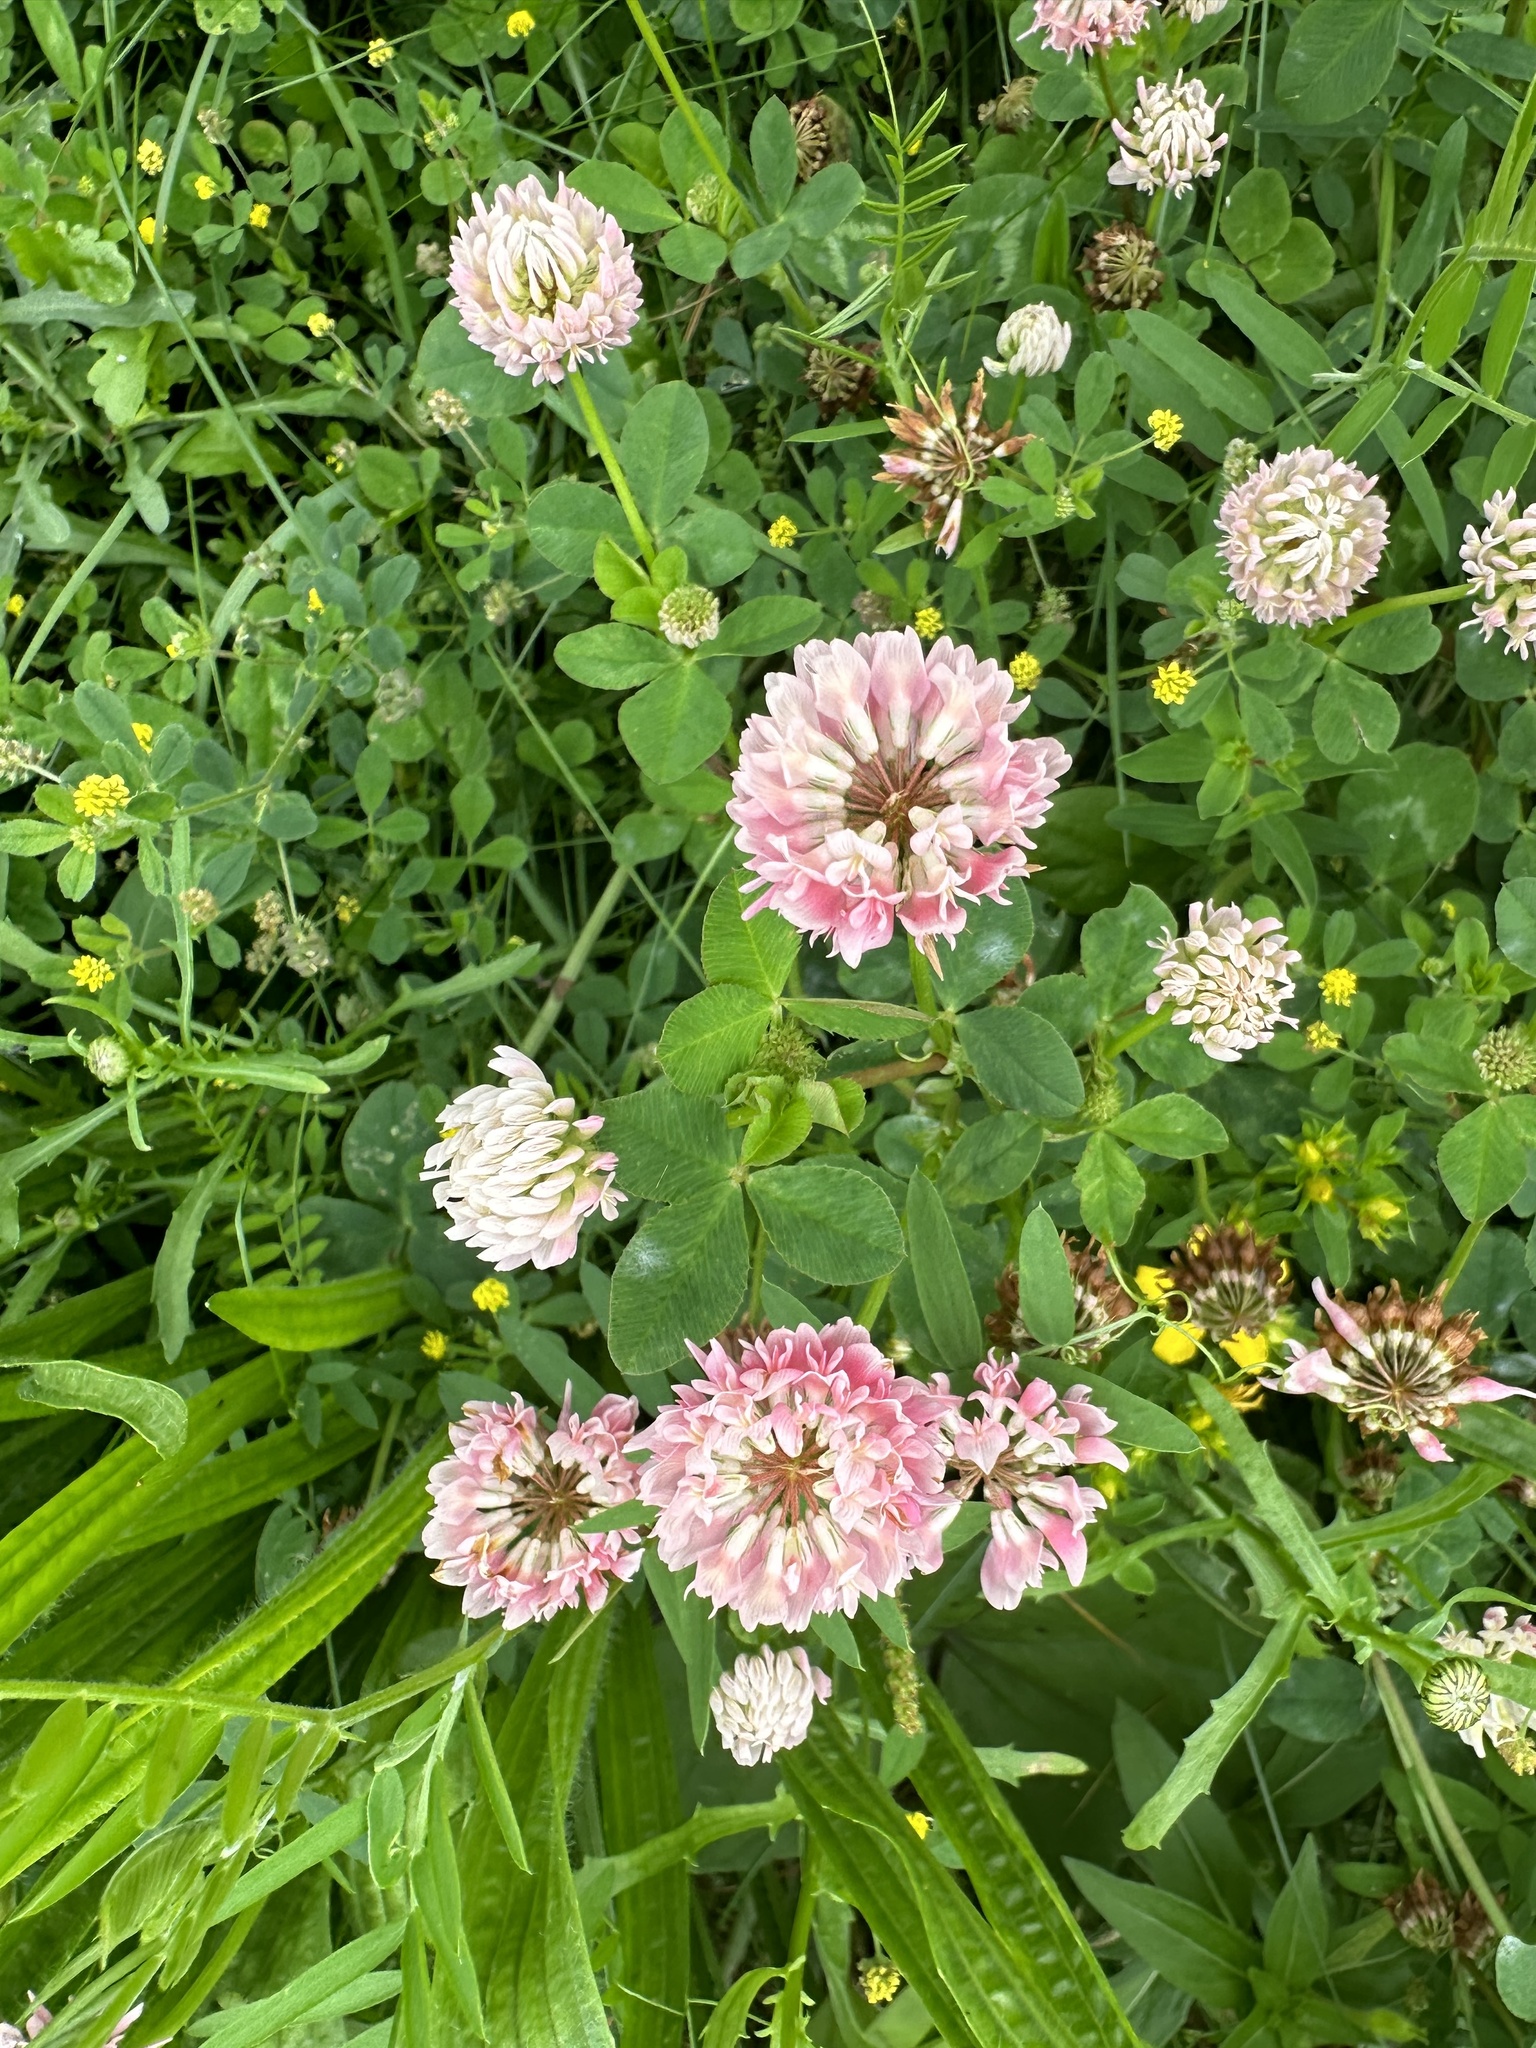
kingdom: Plantae
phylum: Tracheophyta
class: Magnoliopsida
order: Fabales
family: Fabaceae
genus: Trifolium
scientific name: Trifolium hybridum
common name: Alsike clover
